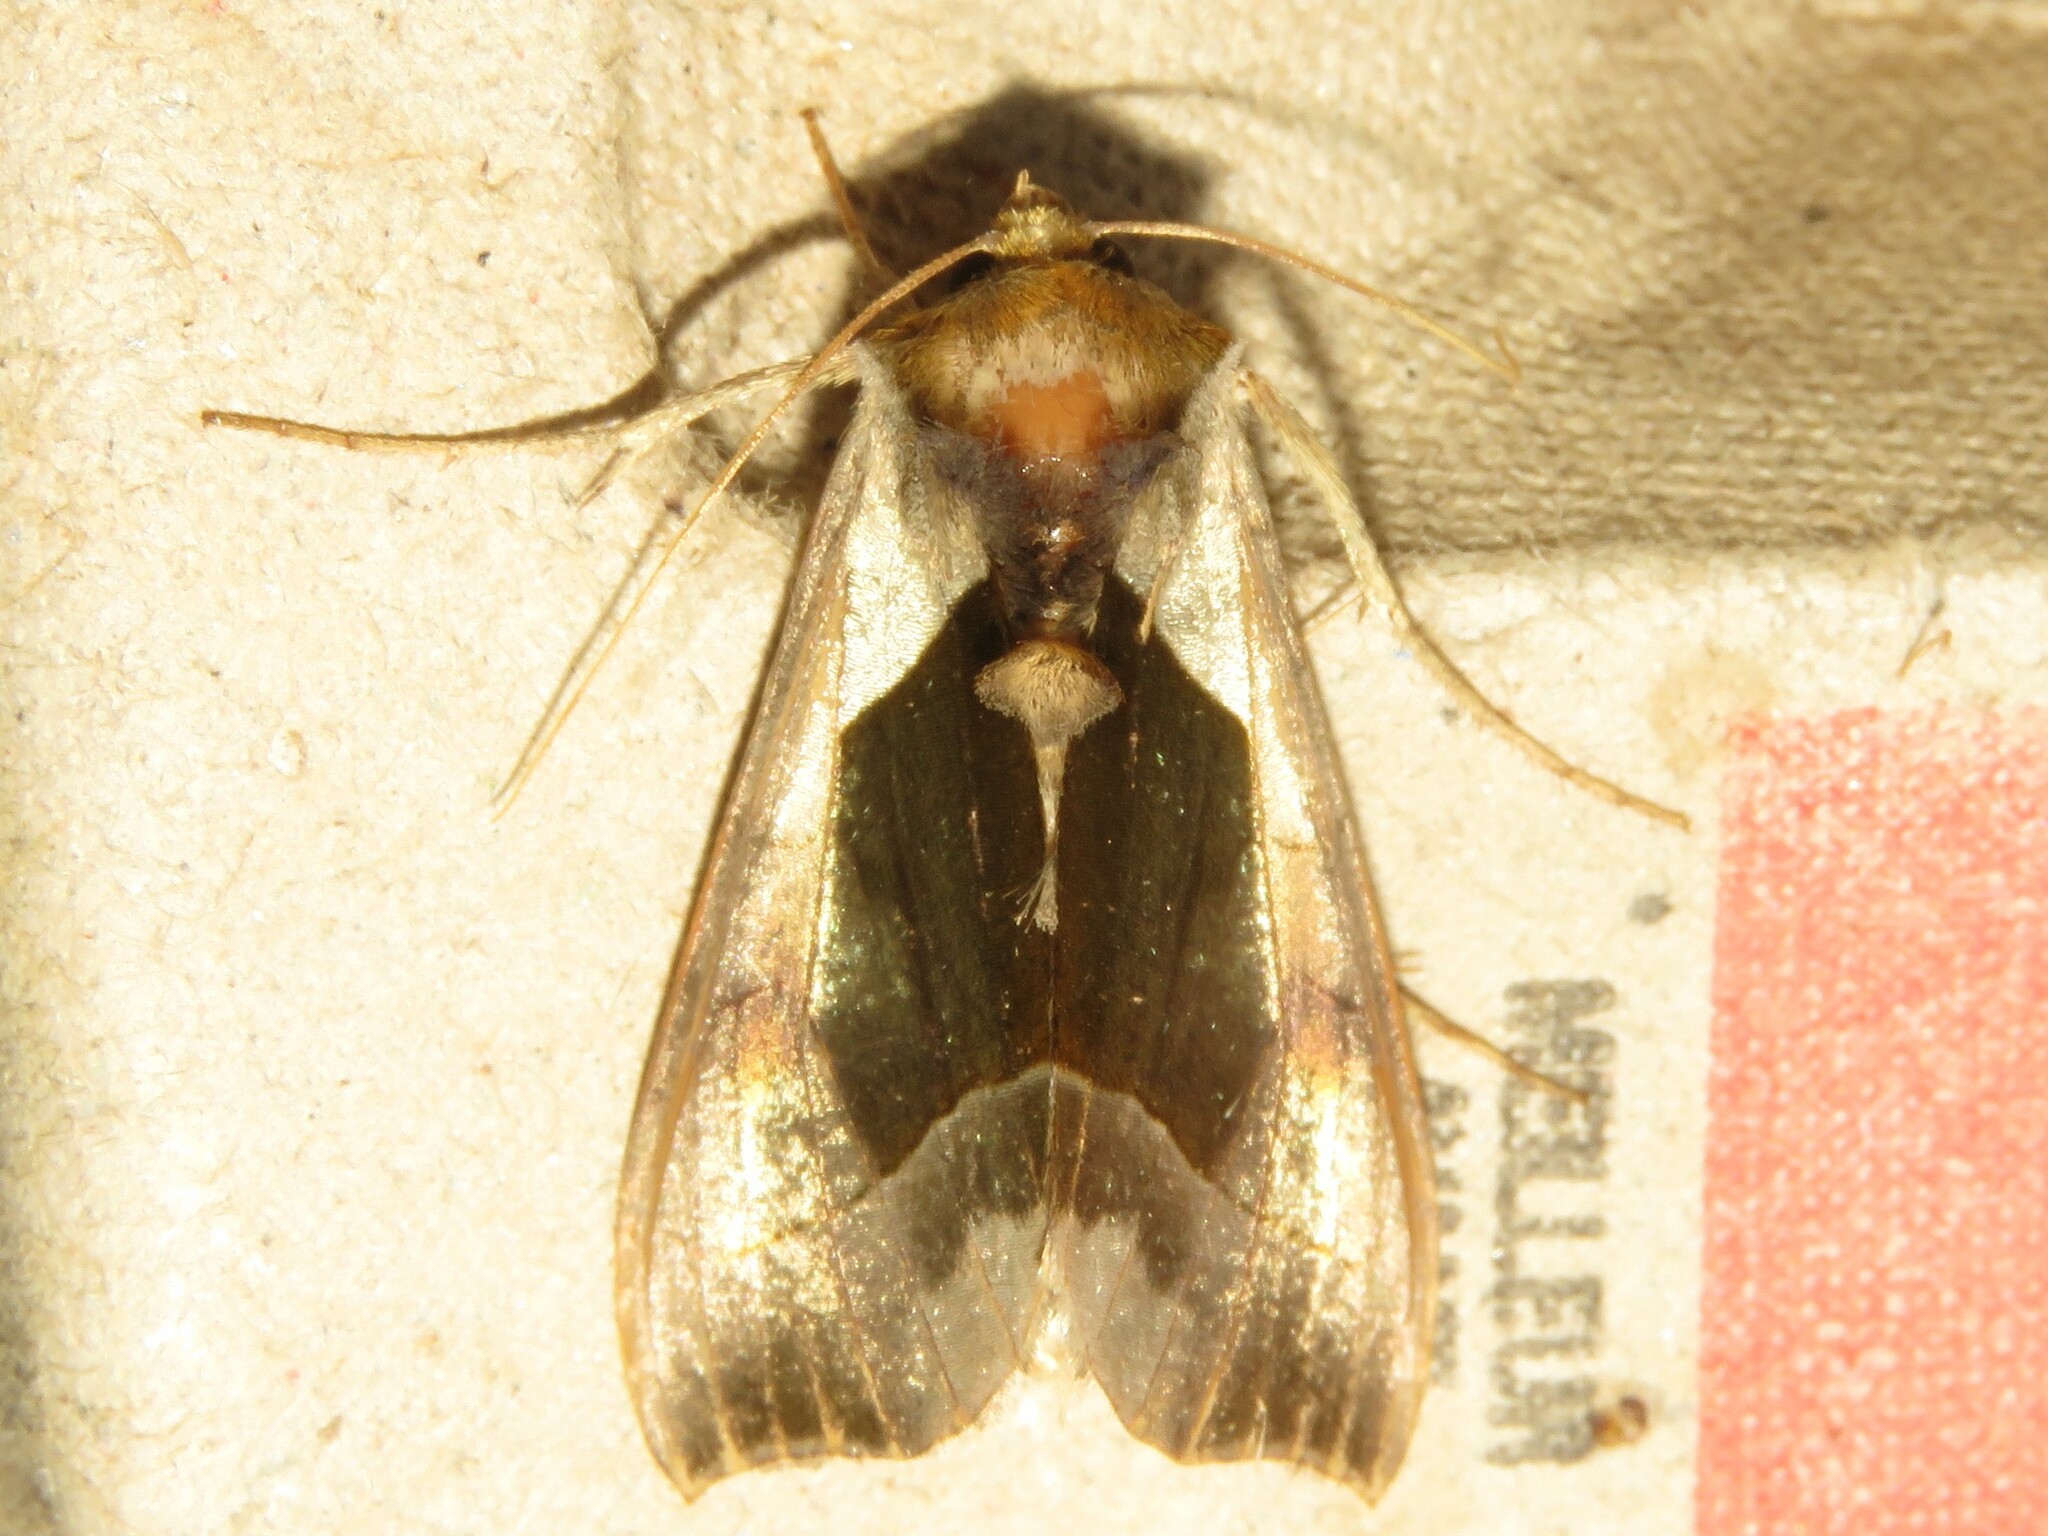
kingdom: Animalia
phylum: Arthropoda
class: Insecta
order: Lepidoptera
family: Noctuidae
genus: Diachrysia
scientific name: Diachrysia balluca
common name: Green-patched looper moth
